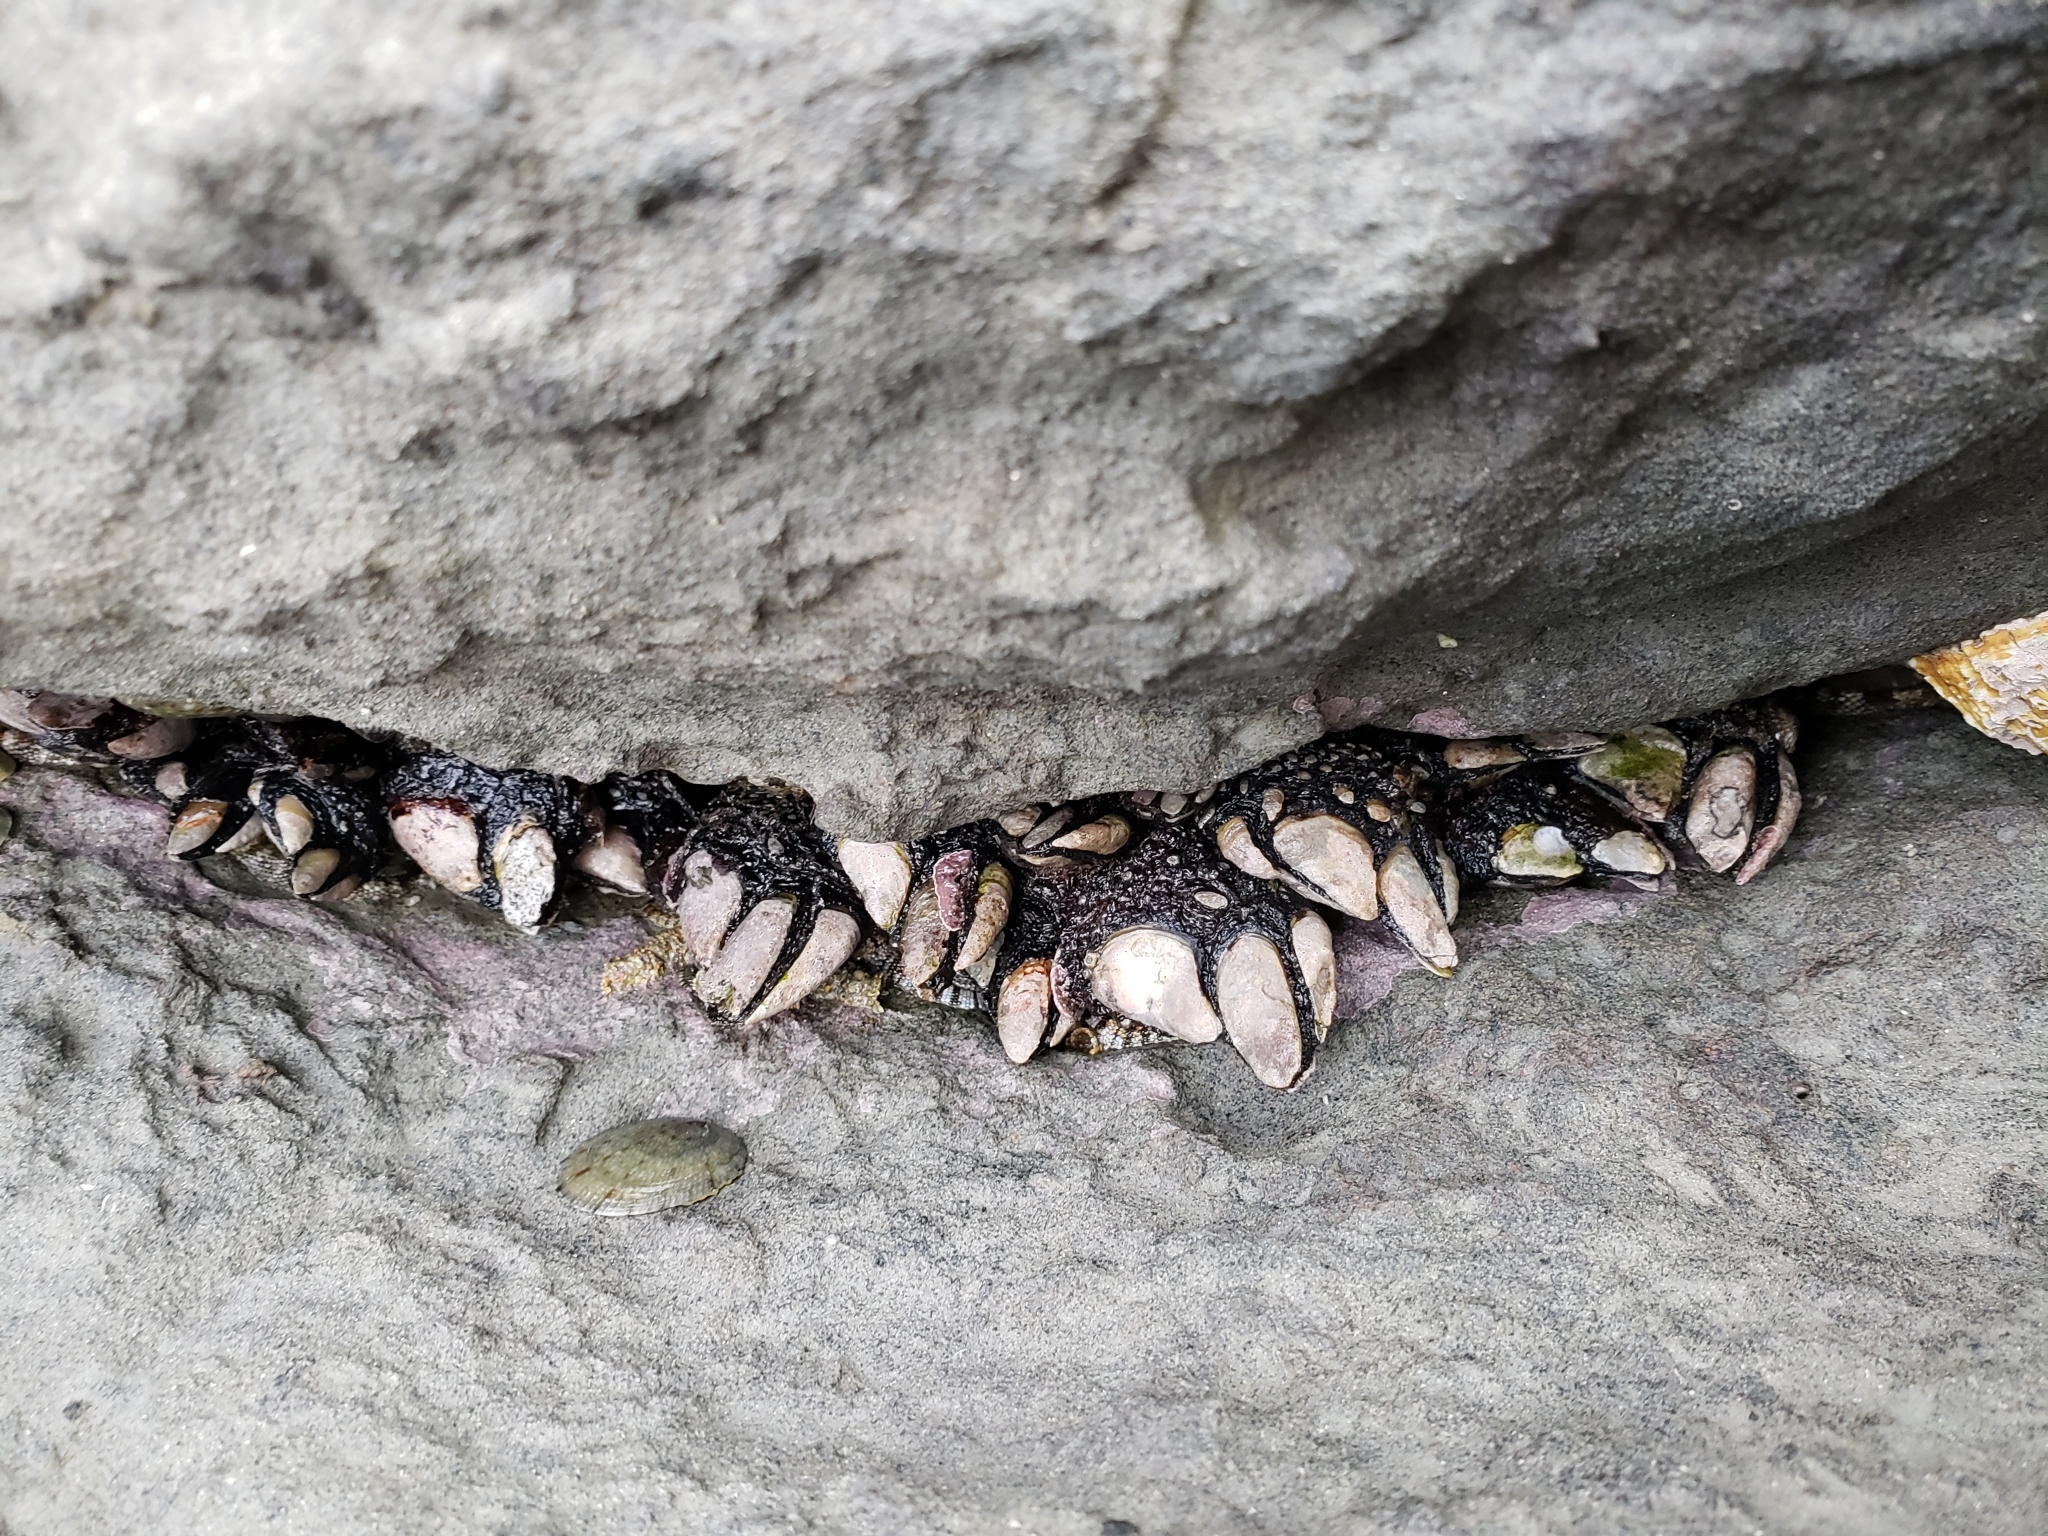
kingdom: Animalia
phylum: Arthropoda
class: Maxillopoda
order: Pedunculata
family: Calanticidae
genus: Calantica
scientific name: Calantica spinosa
